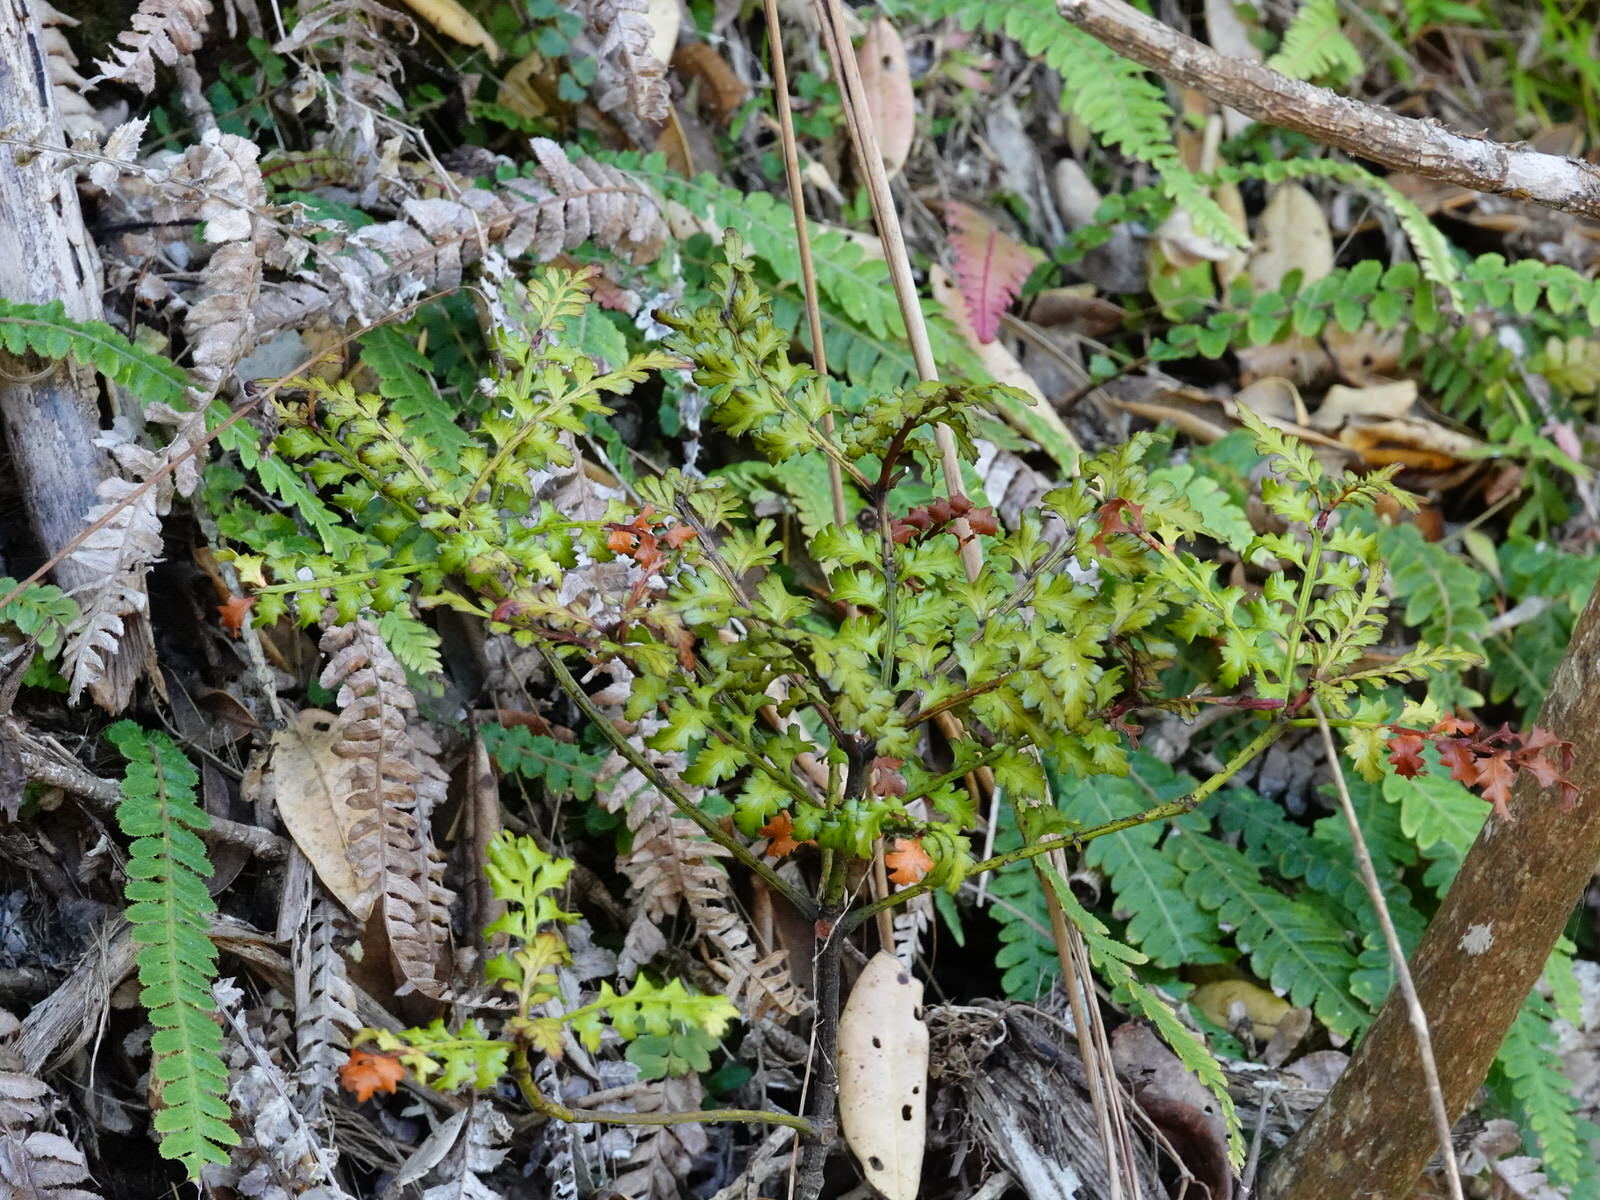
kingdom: Plantae
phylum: Tracheophyta
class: Pinopsida
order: Pinales
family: Phyllocladaceae
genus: Phyllocladus
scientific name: Phyllocladus trichomanoides
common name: Celery pine
